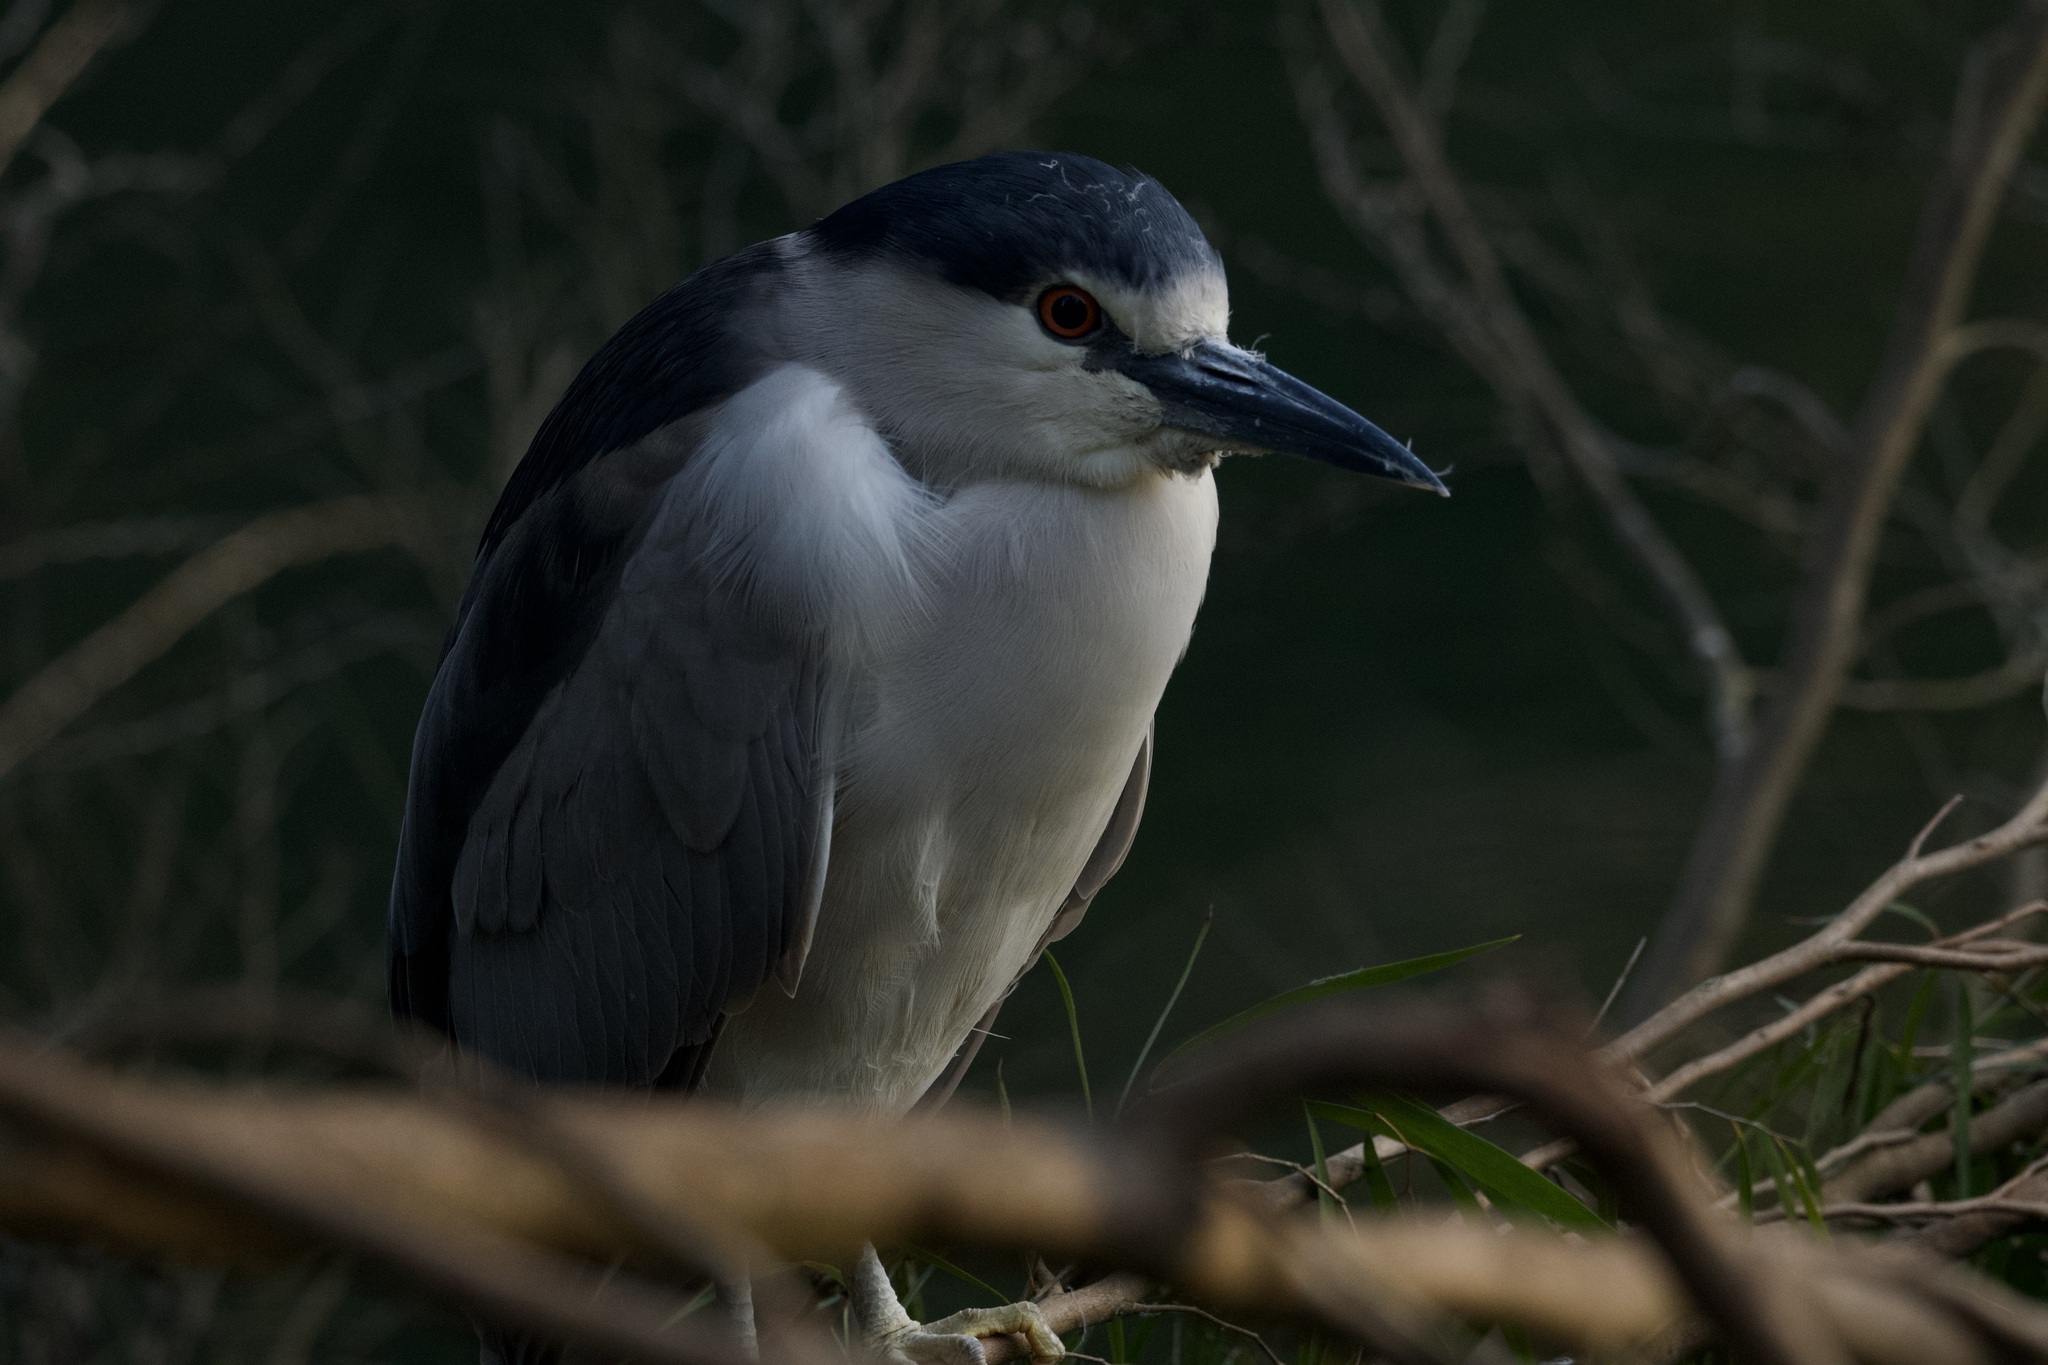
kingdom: Animalia
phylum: Chordata
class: Aves
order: Pelecaniformes
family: Ardeidae
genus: Nycticorax
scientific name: Nycticorax nycticorax
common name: Black-crowned night heron
